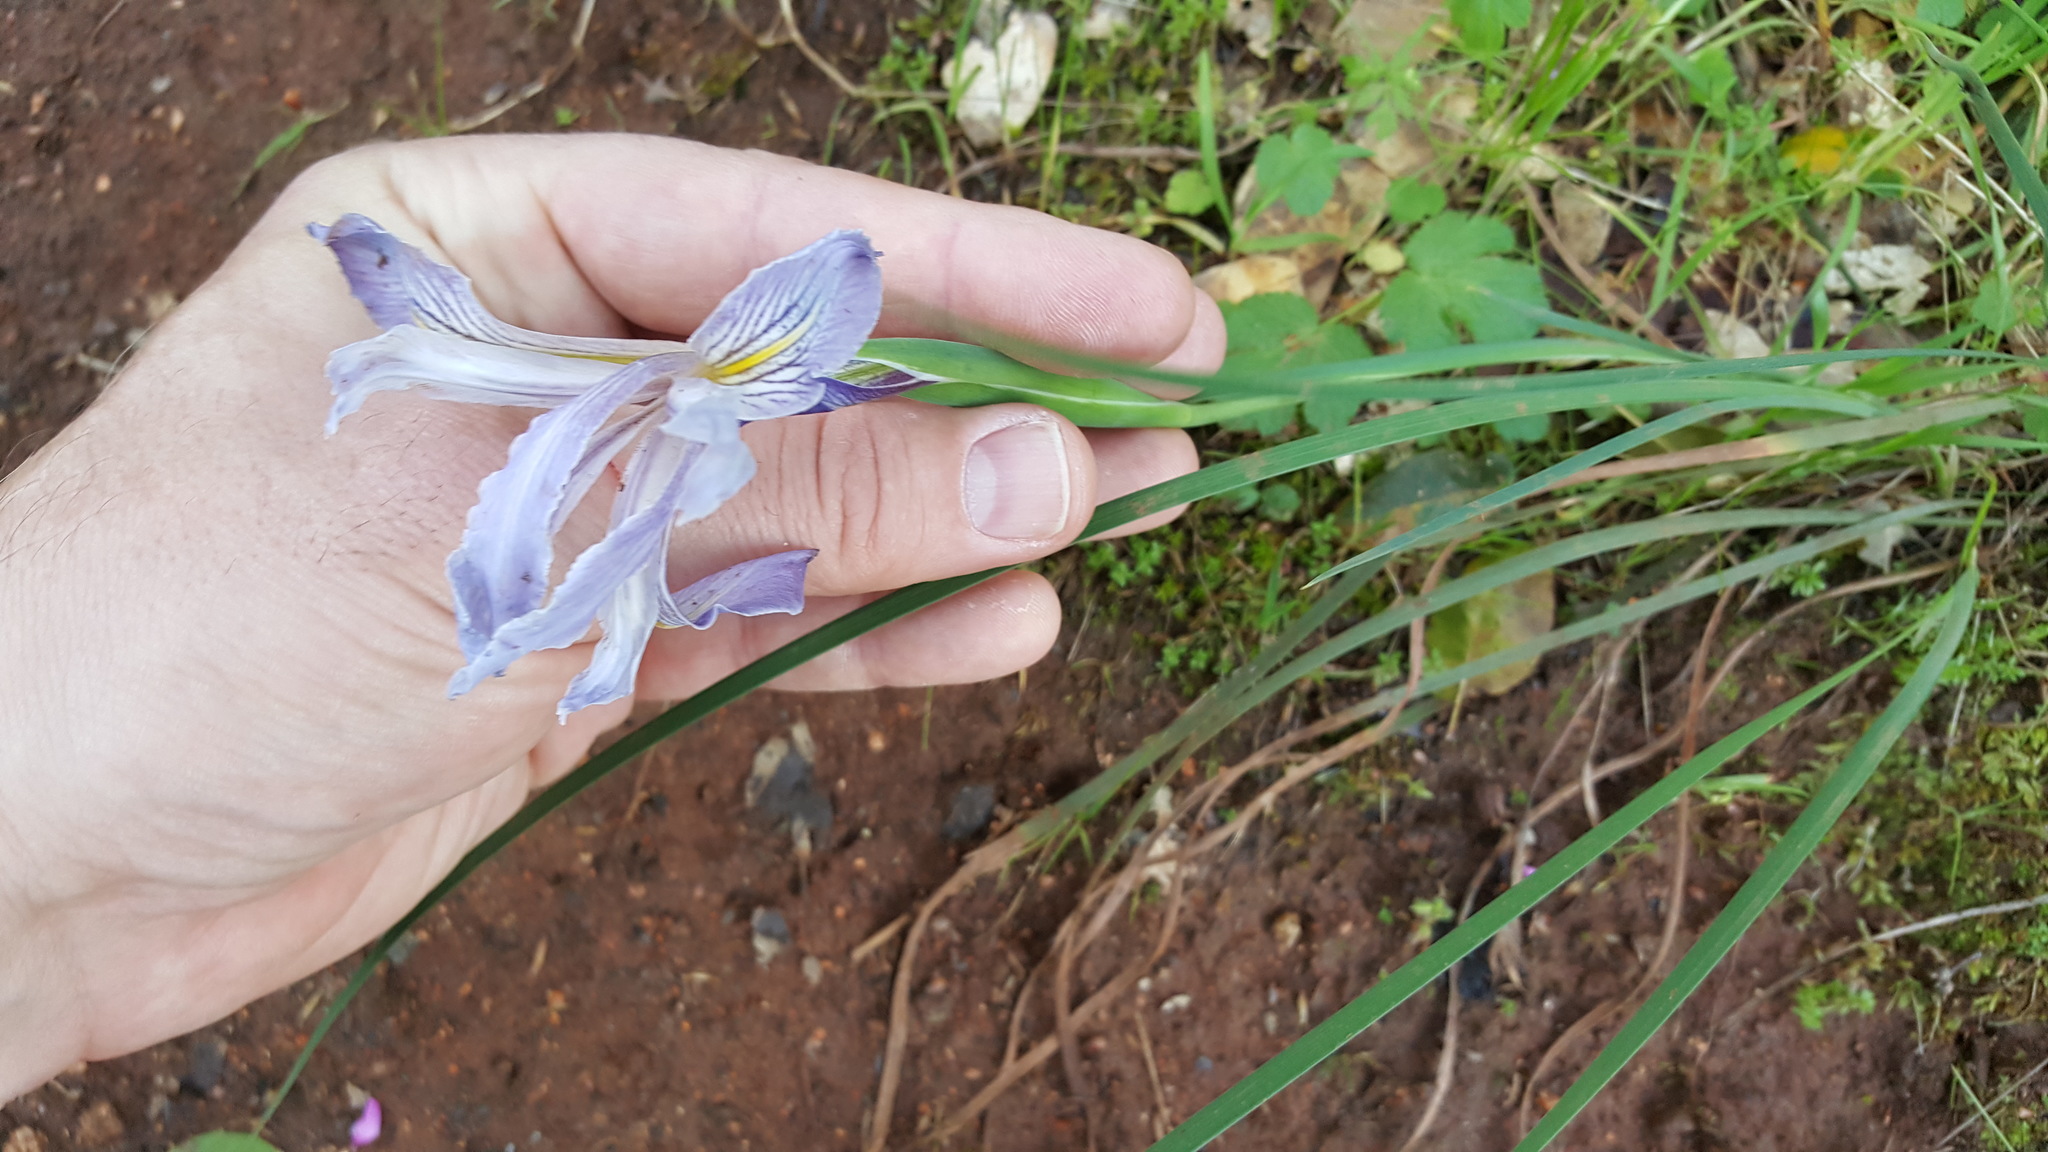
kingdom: Plantae
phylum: Tracheophyta
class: Liliopsida
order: Asparagales
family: Iridaceae
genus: Iris
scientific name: Iris macrosiphon
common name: Ground iris
